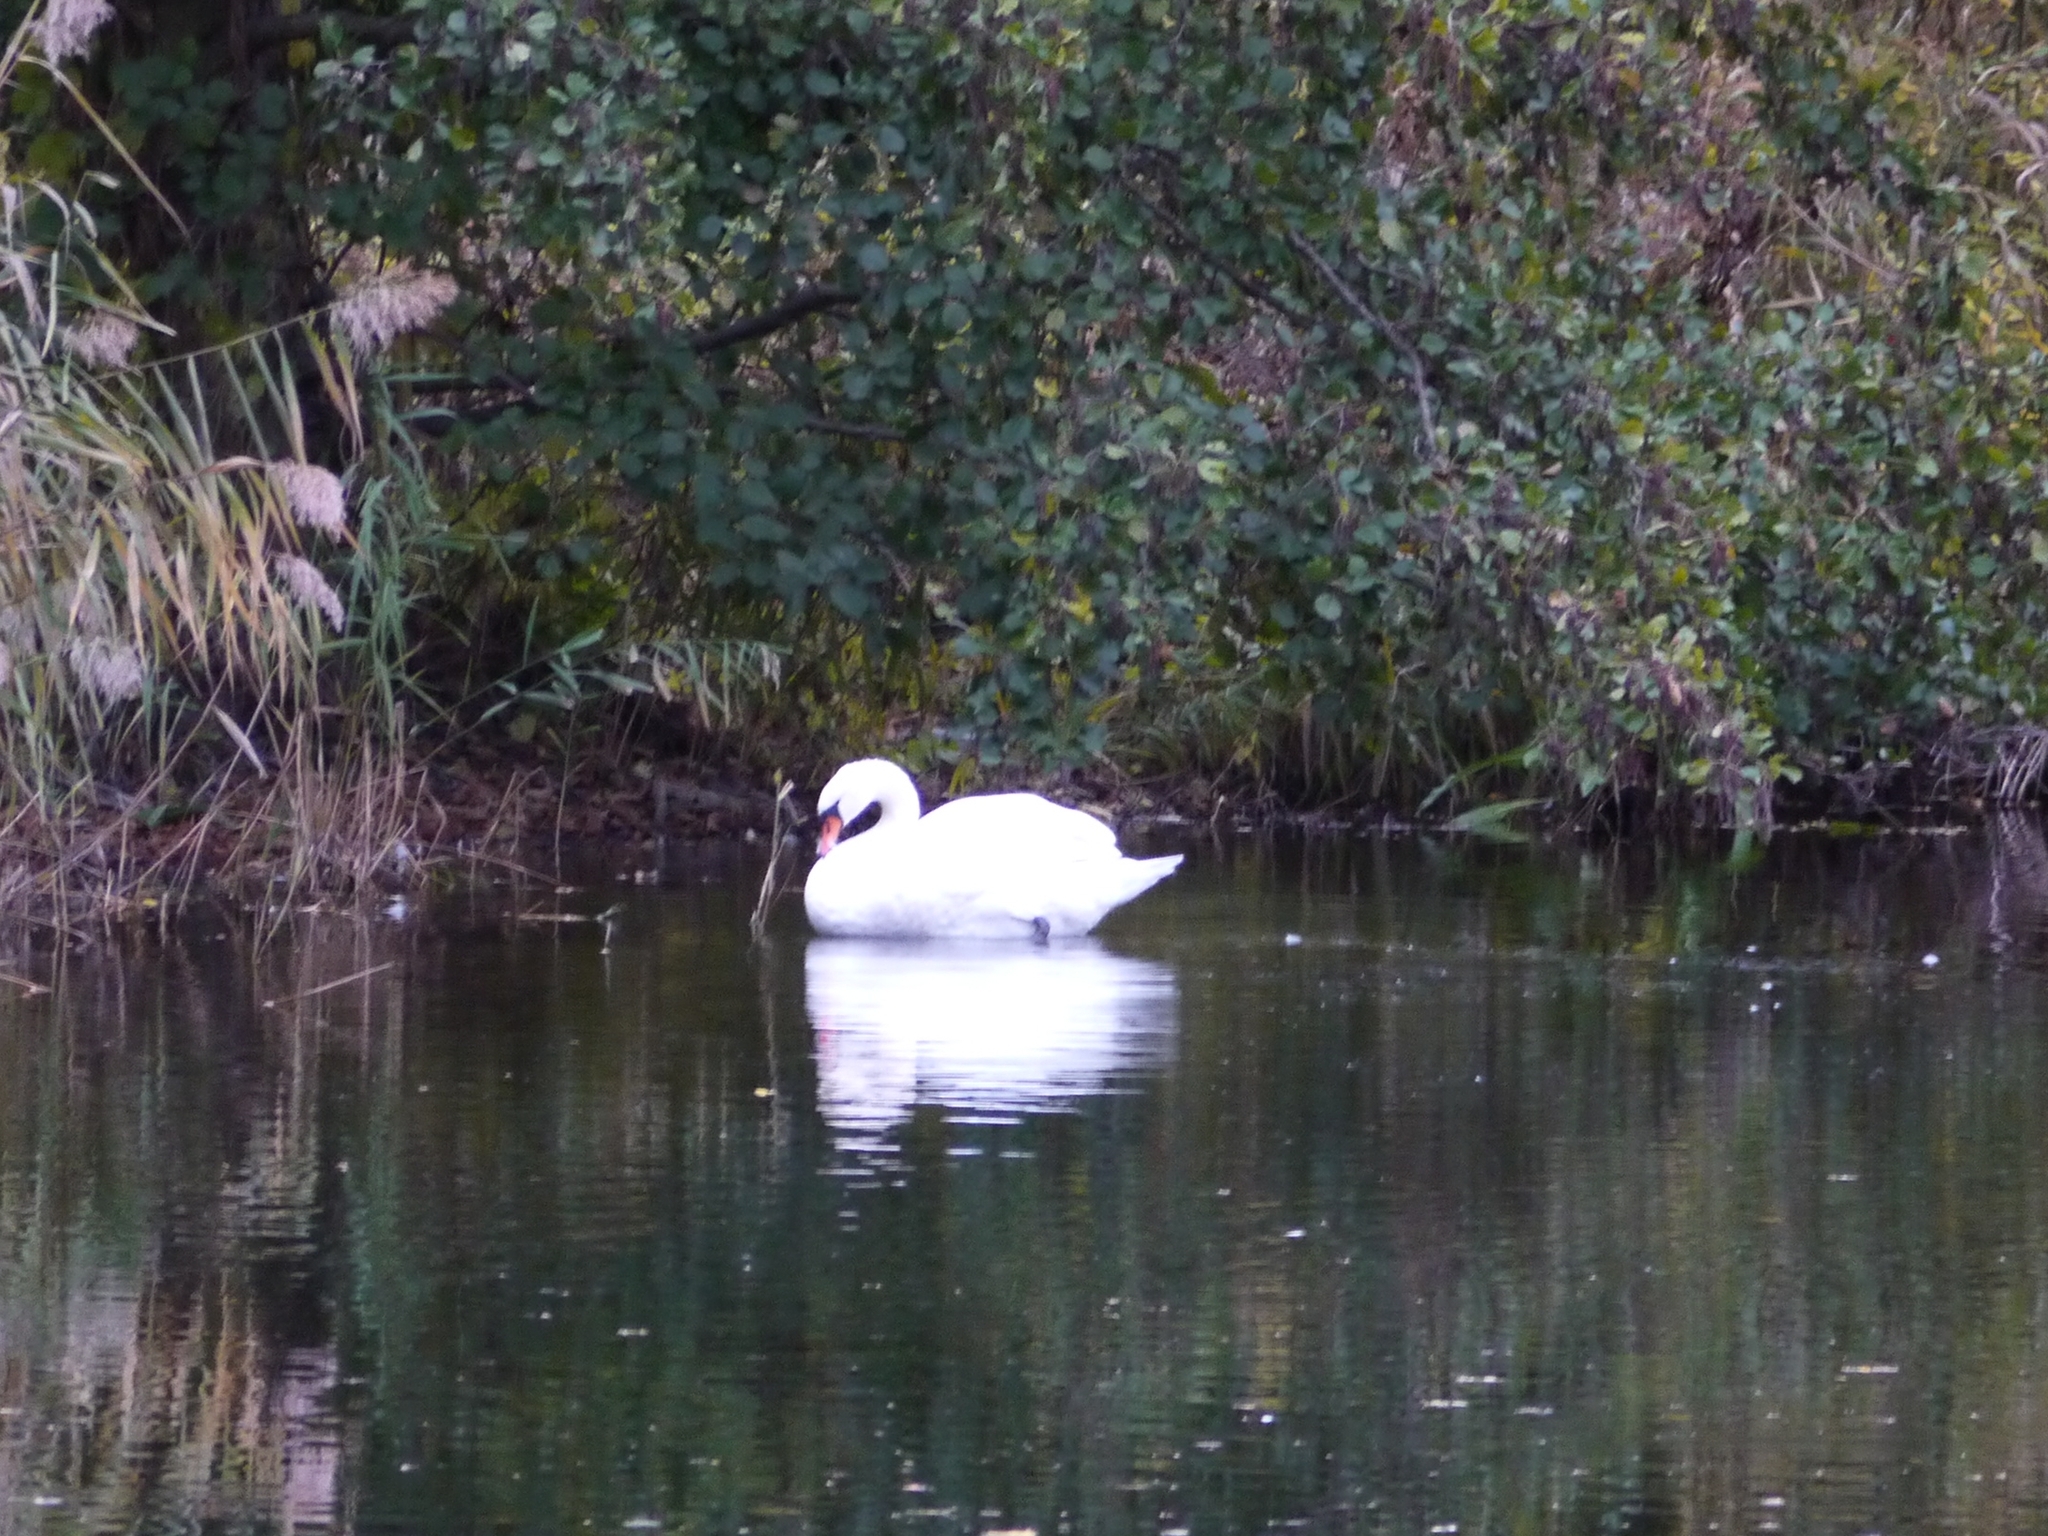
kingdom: Animalia
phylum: Chordata
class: Aves
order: Anseriformes
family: Anatidae
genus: Cygnus
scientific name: Cygnus olor
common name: Mute swan
